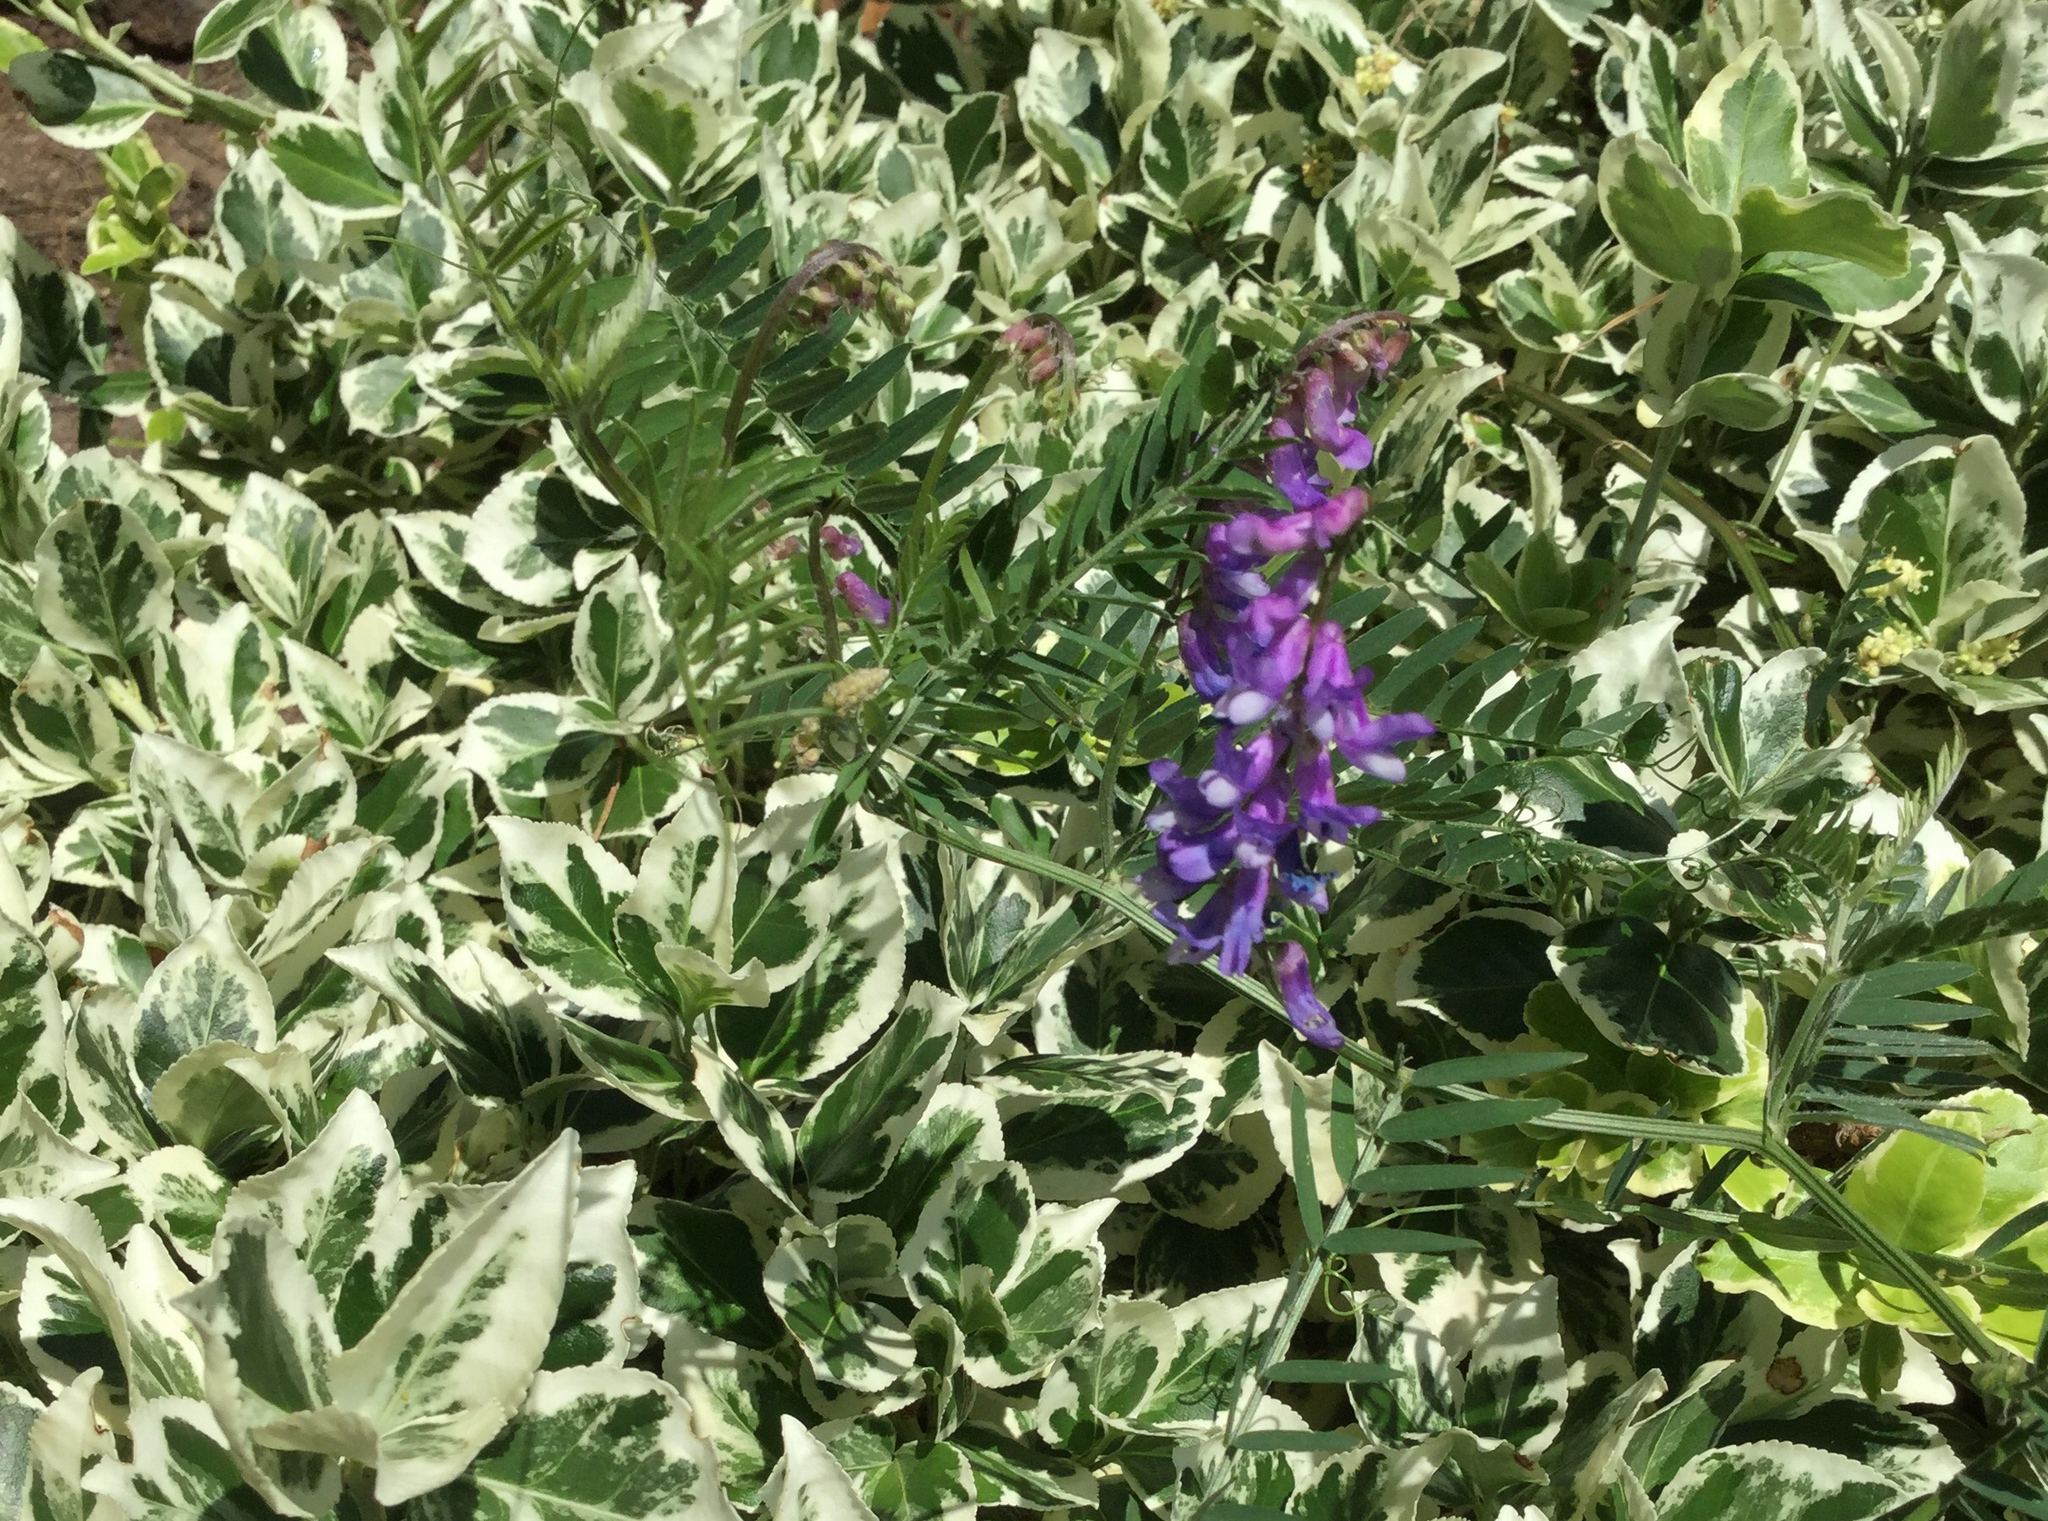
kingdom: Plantae
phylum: Tracheophyta
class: Magnoliopsida
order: Fabales
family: Fabaceae
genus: Vicia
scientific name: Vicia cracca
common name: Bird vetch
